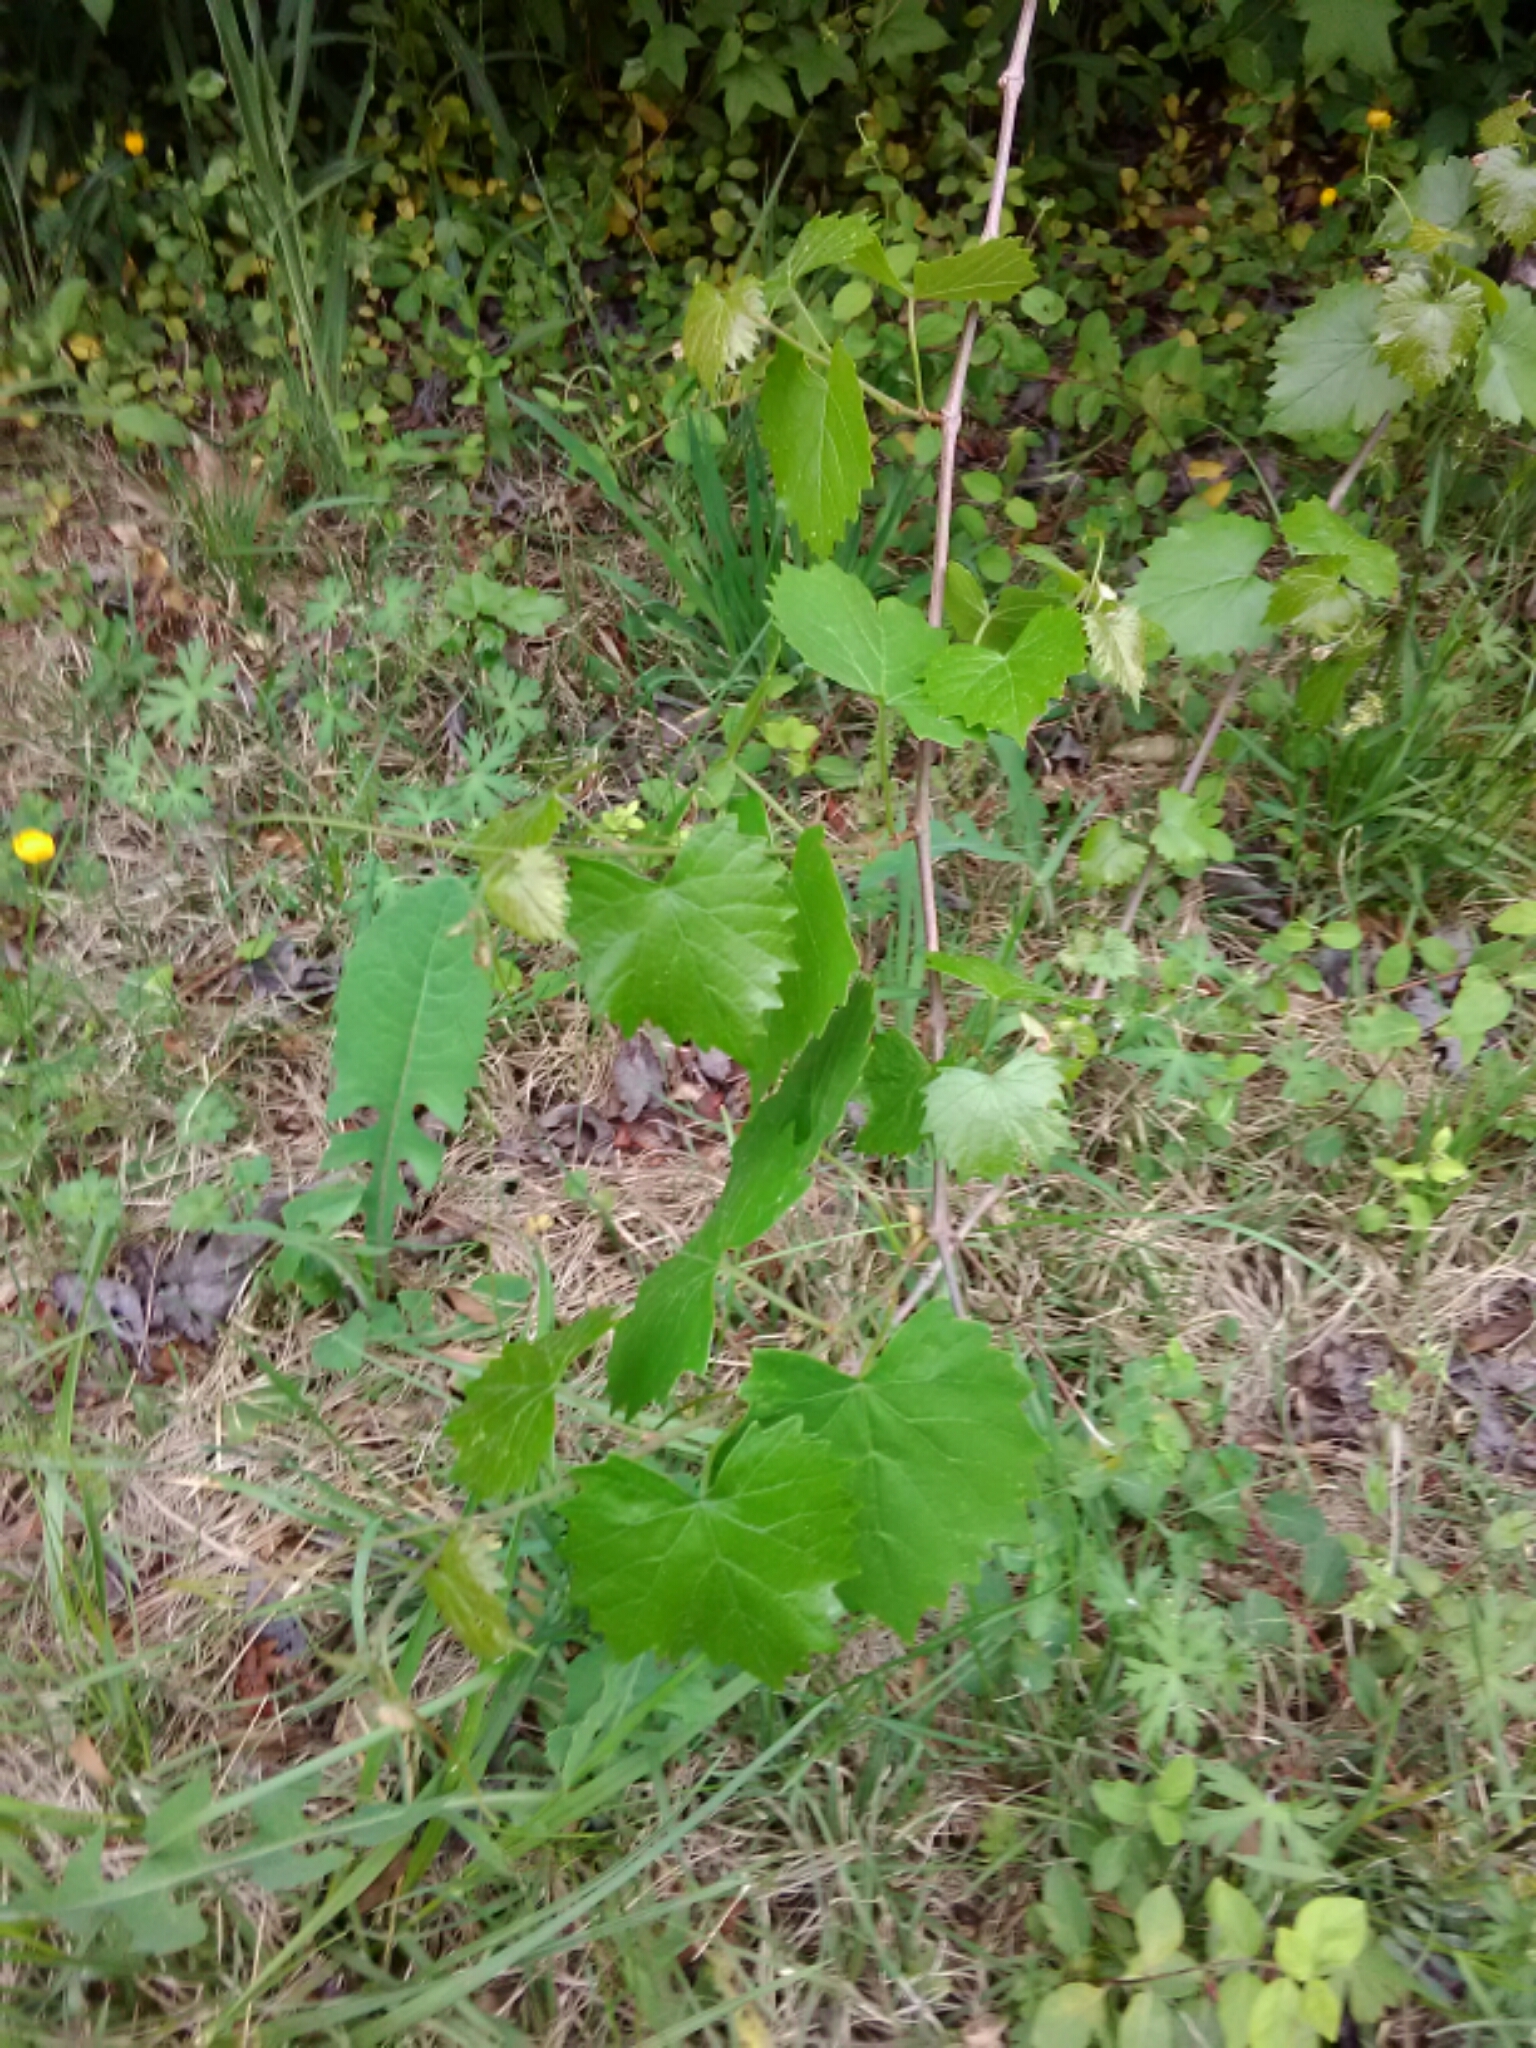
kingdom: Plantae
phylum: Tracheophyta
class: Magnoliopsida
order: Vitales
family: Vitaceae
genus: Vitis
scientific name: Vitis rotundifolia
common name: Muscadine grape
